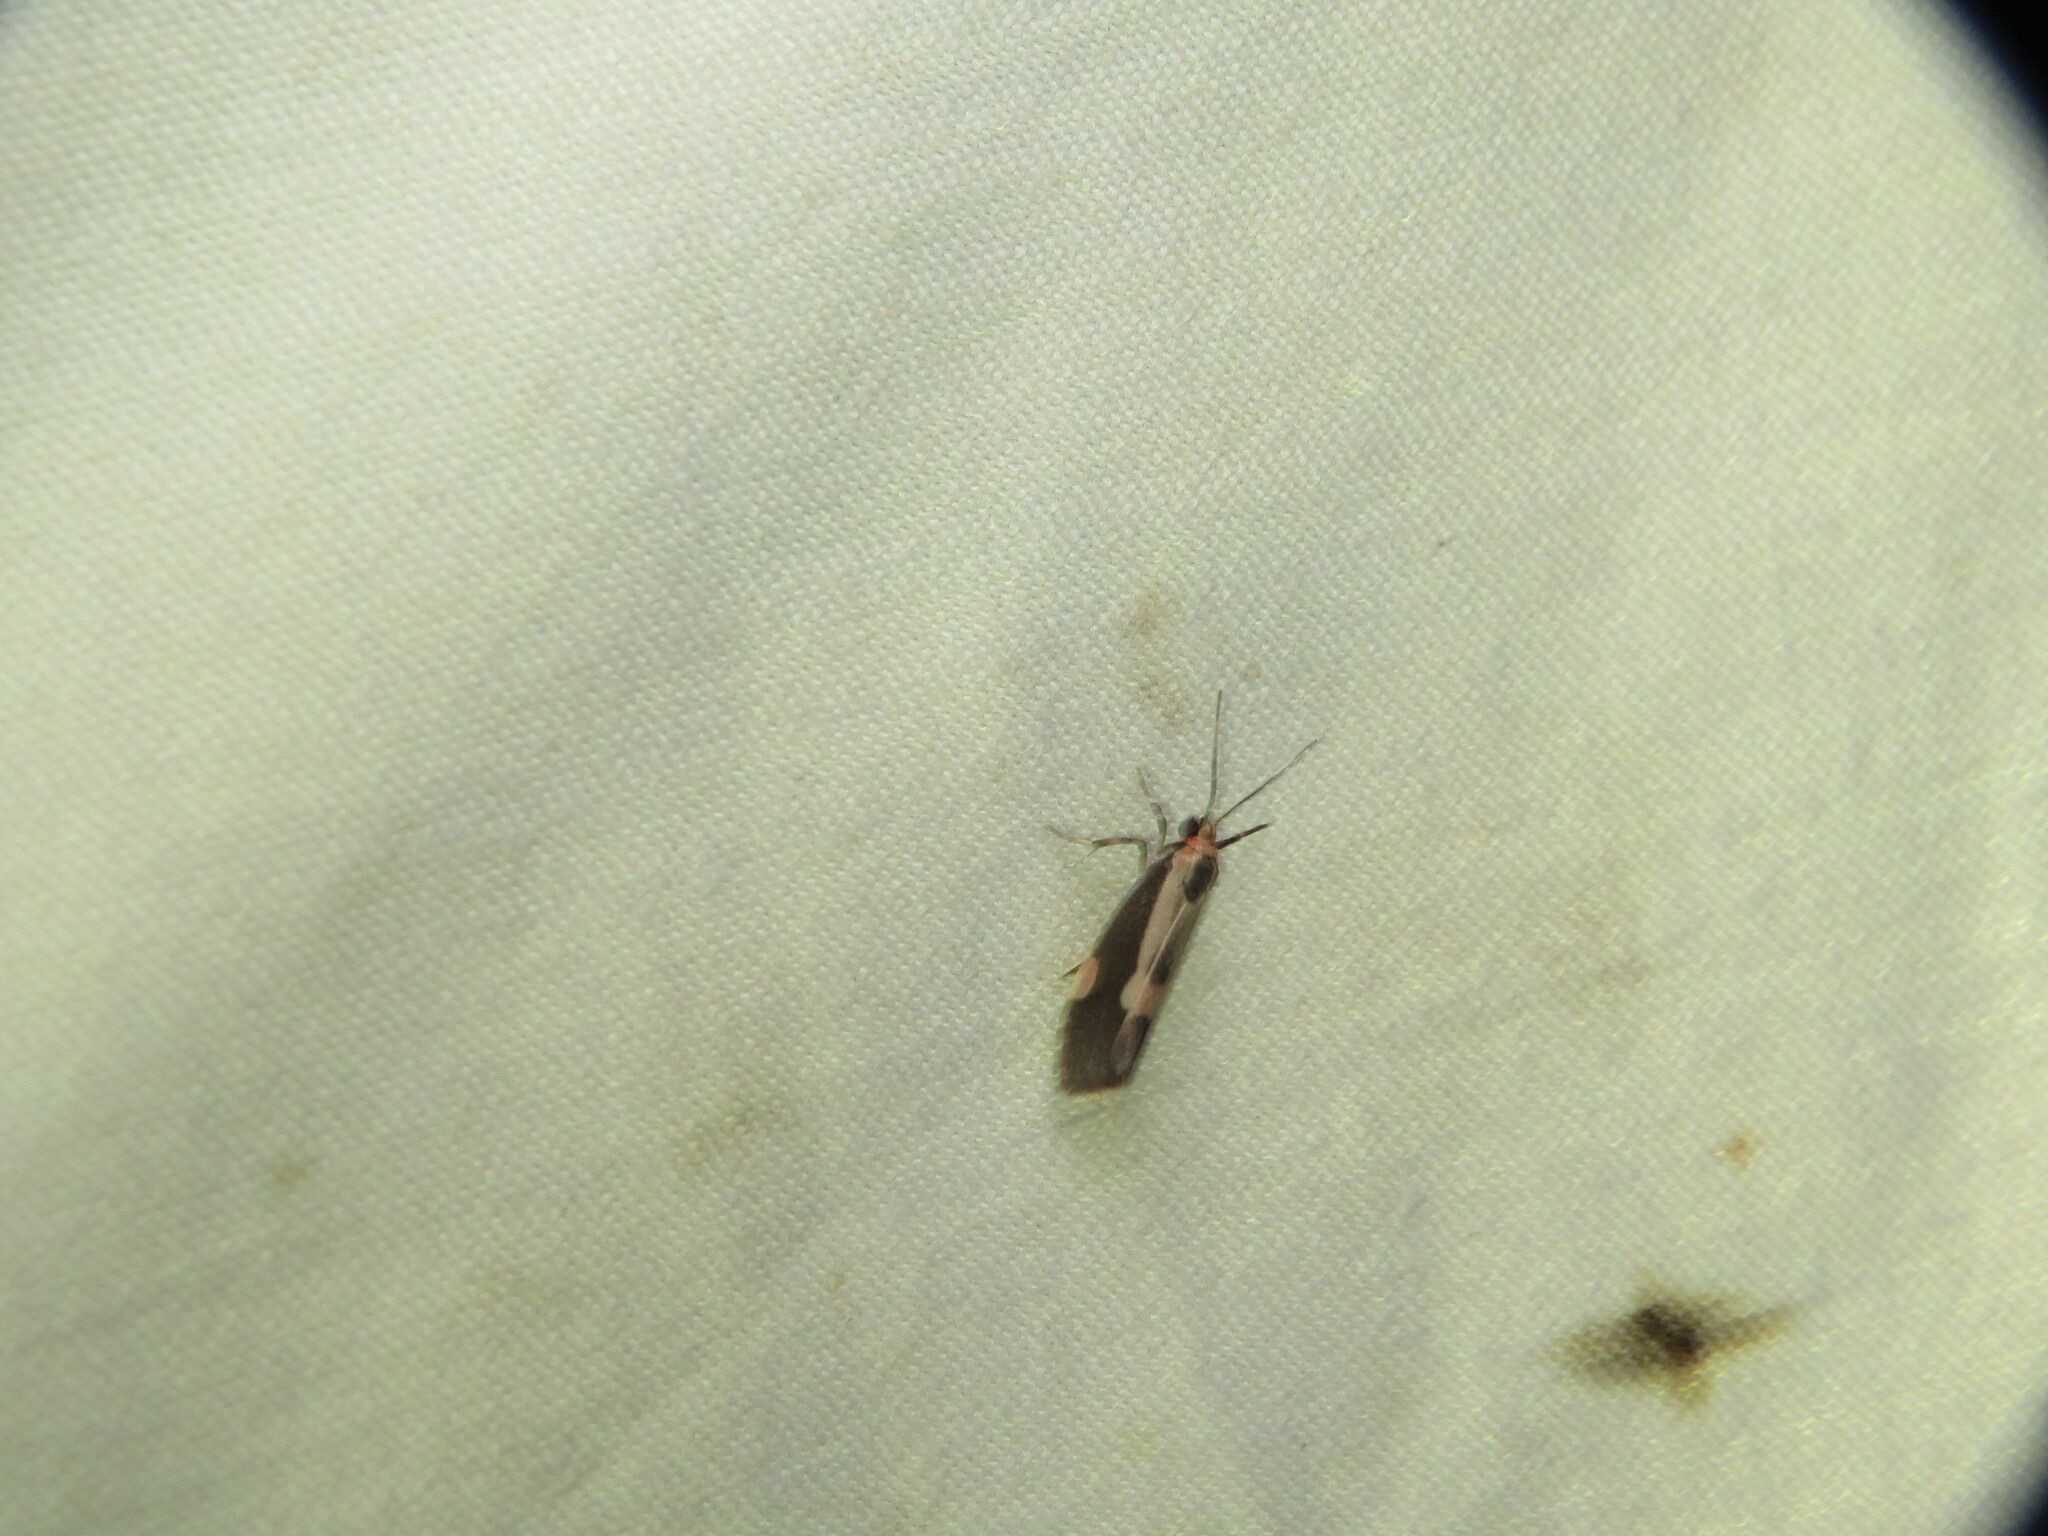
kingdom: Animalia
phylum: Arthropoda
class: Insecta
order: Lepidoptera
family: Erebidae
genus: Cisthene
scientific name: Cisthene packardii
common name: Packard's lichen moth
